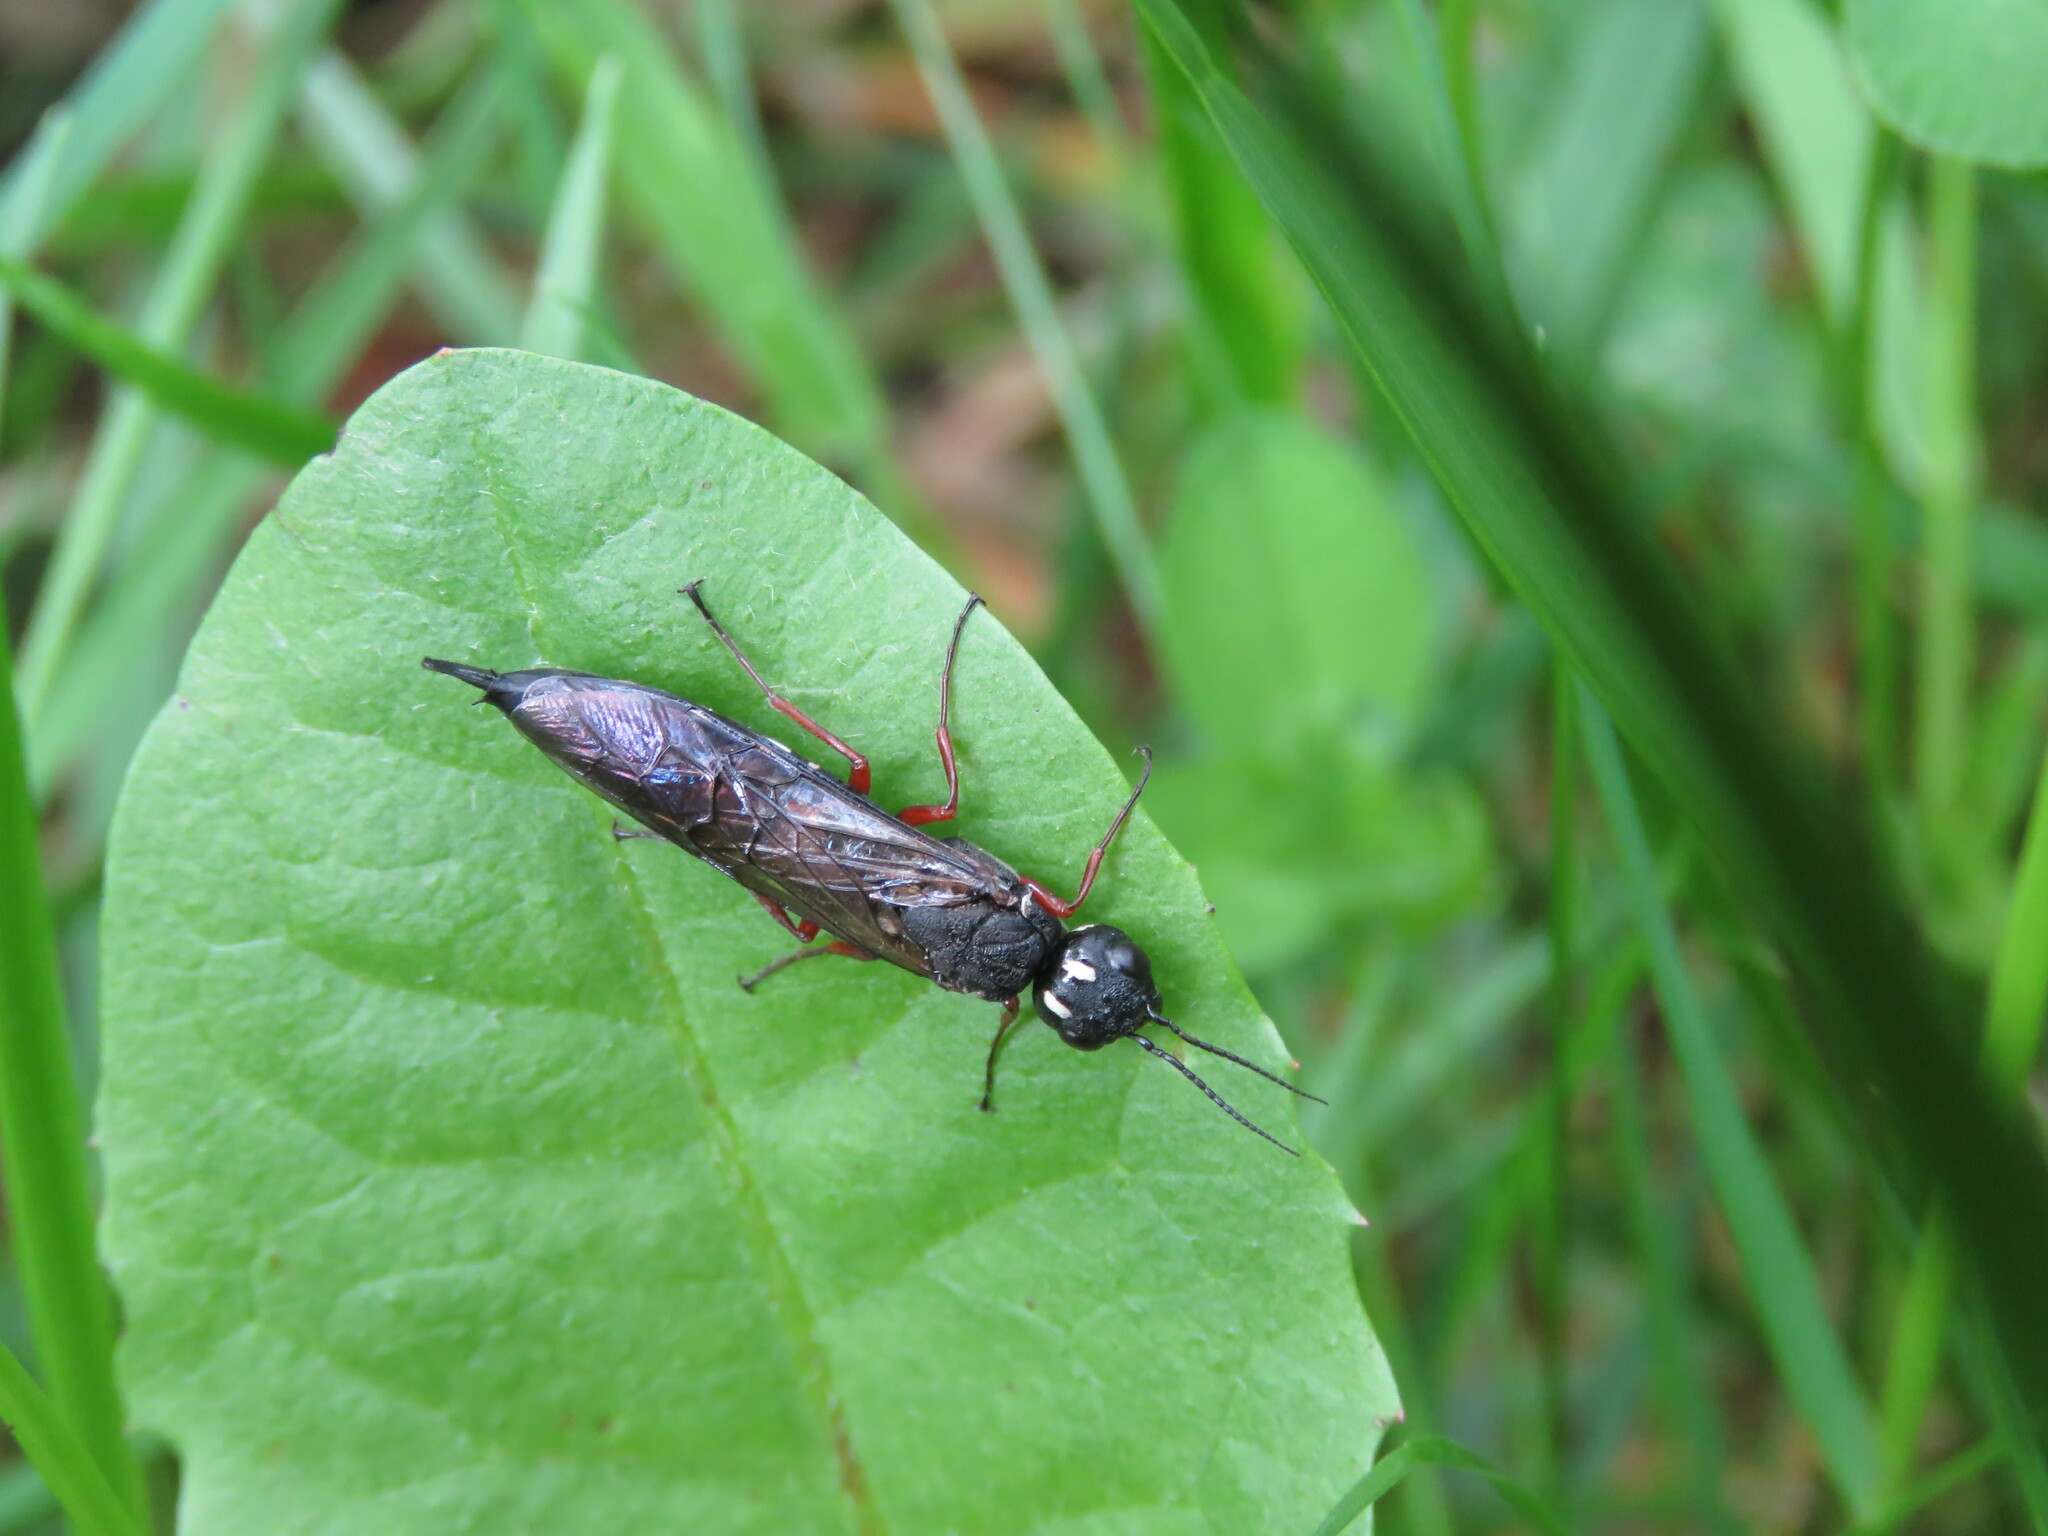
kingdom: Animalia
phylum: Arthropoda
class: Insecta
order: Hymenoptera
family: Xiphydriidae
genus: Xiphydria
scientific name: Xiphydria camelus
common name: Alder wood-wasp
